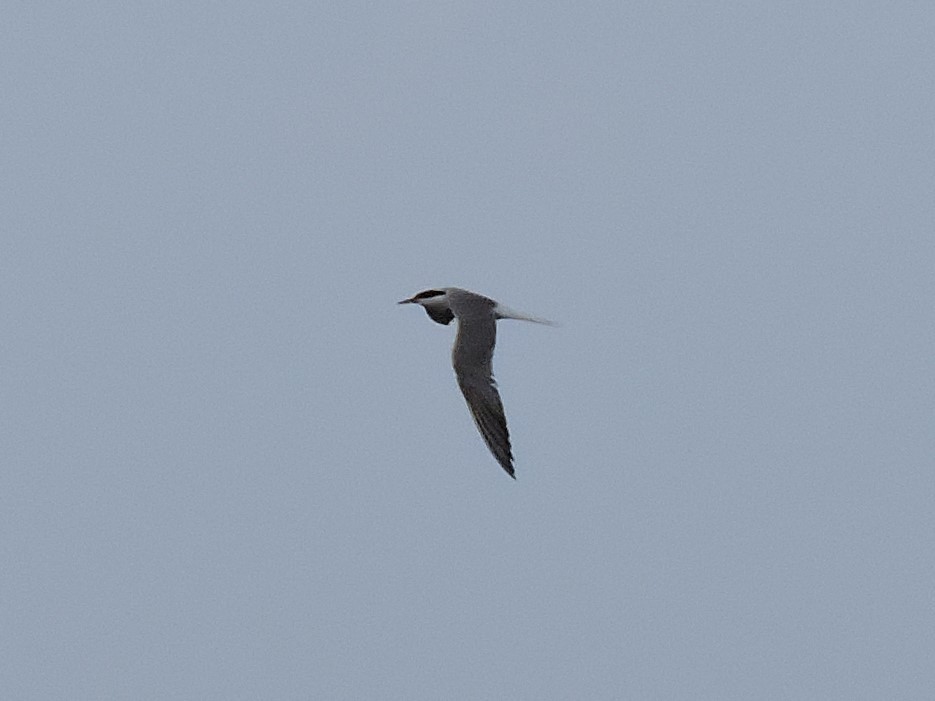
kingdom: Animalia
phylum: Chordata
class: Aves
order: Charadriiformes
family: Laridae
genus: Sterna
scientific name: Sterna hirundo
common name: Common tern
